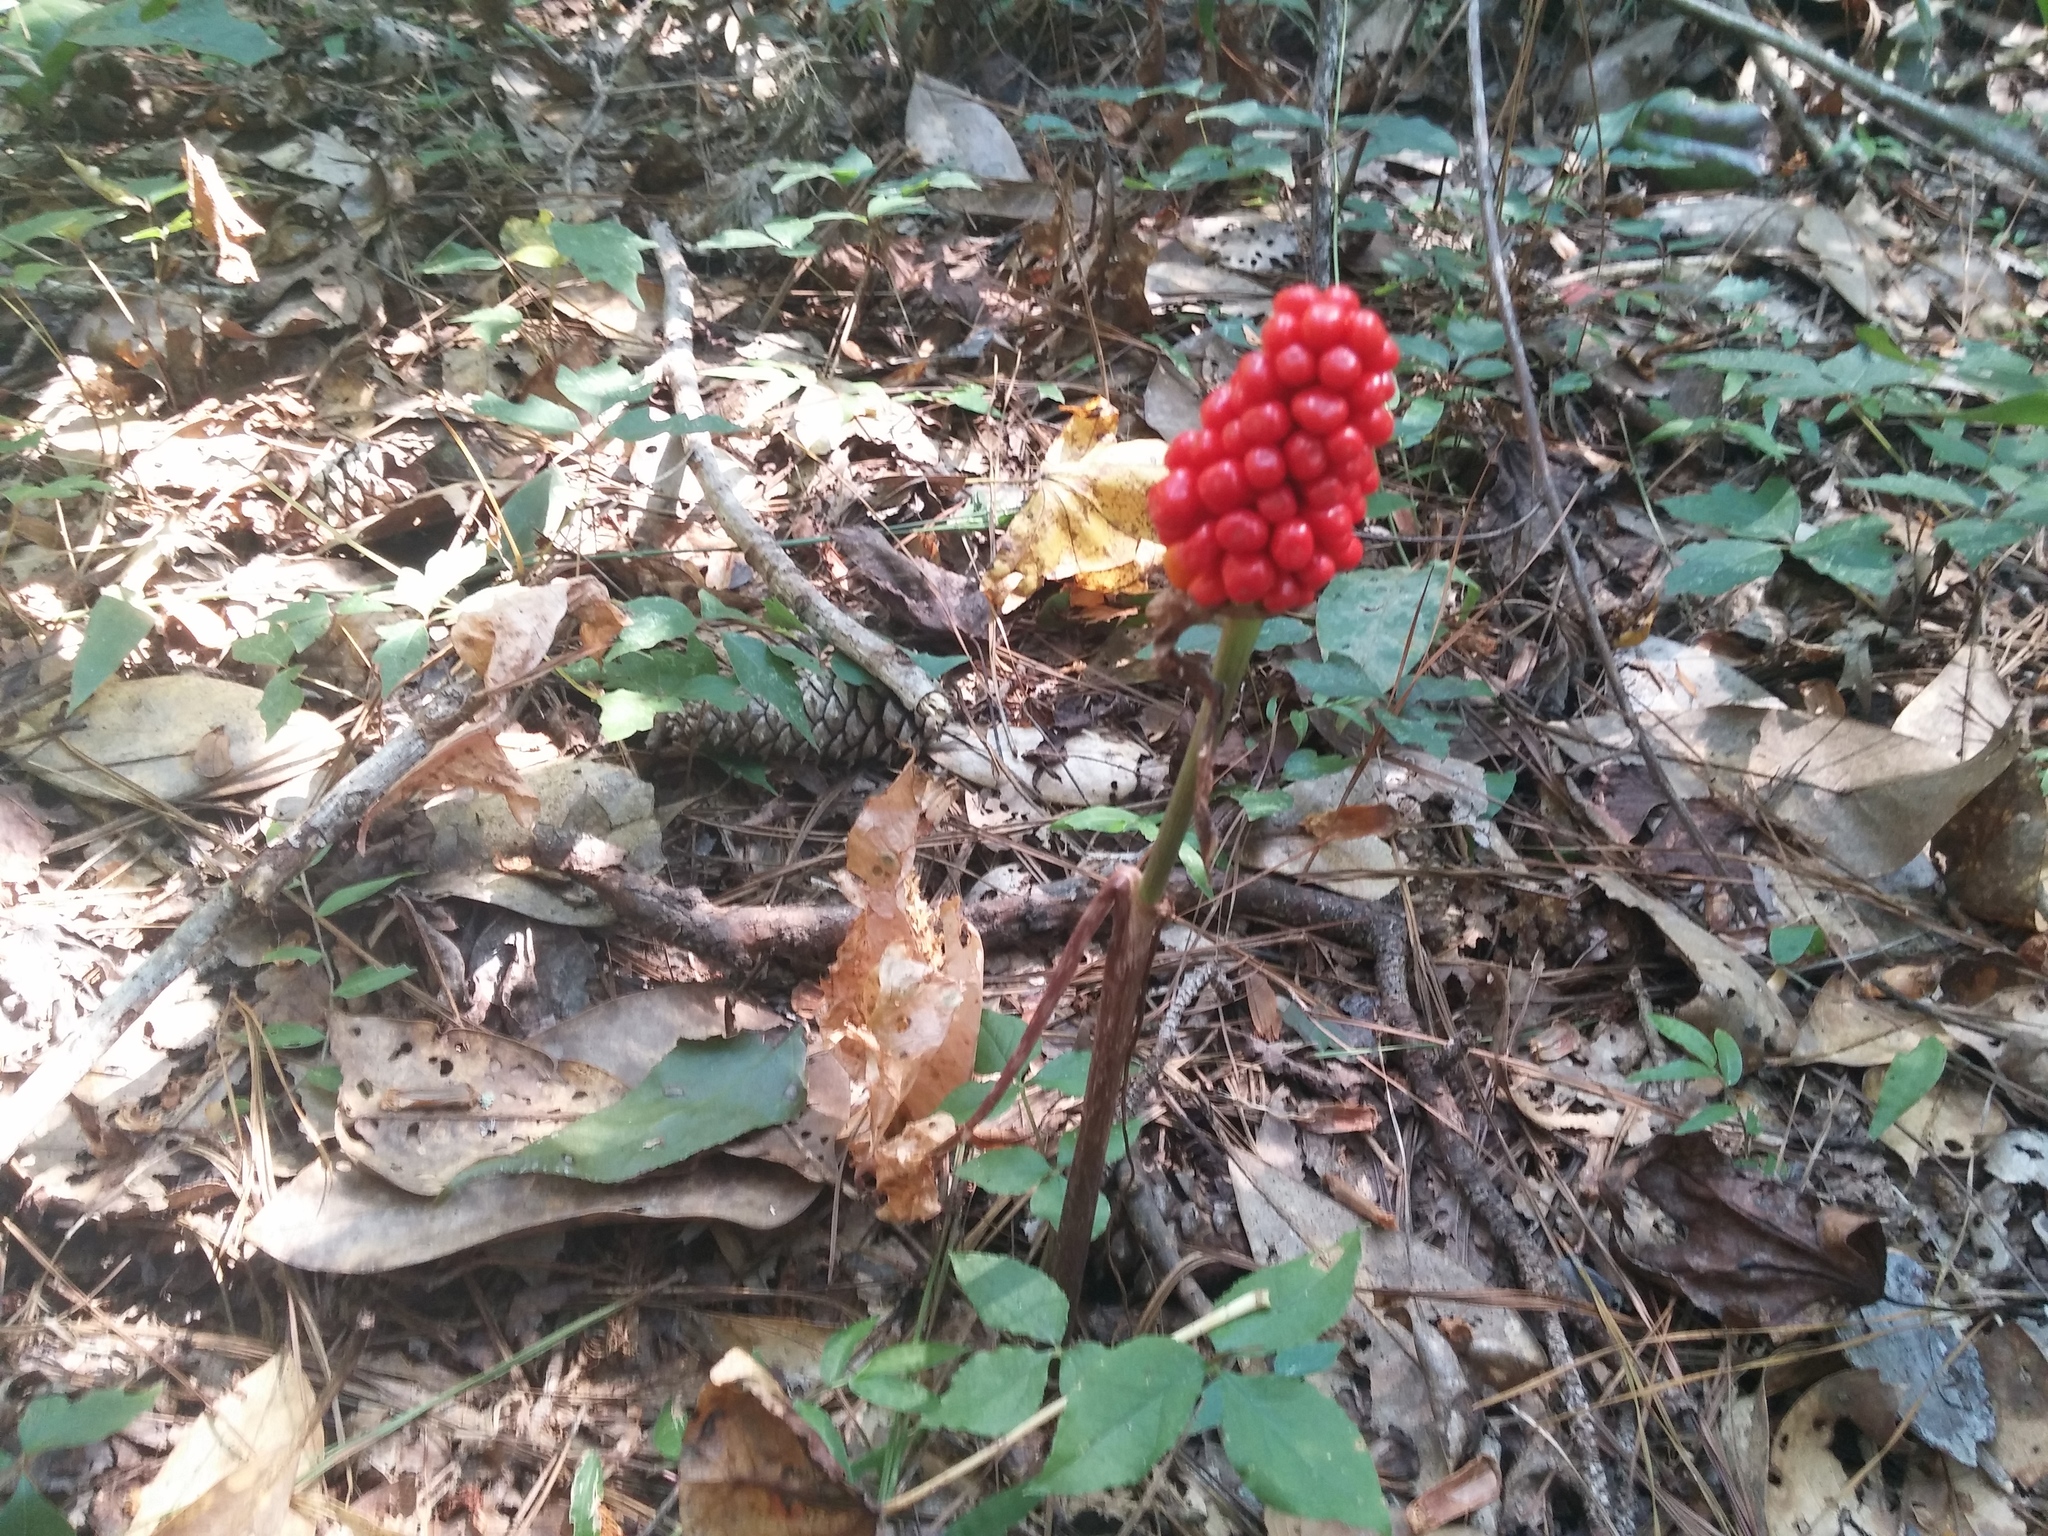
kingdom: Plantae
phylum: Tracheophyta
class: Liliopsida
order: Alismatales
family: Araceae
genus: Arisaema
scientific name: Arisaema
